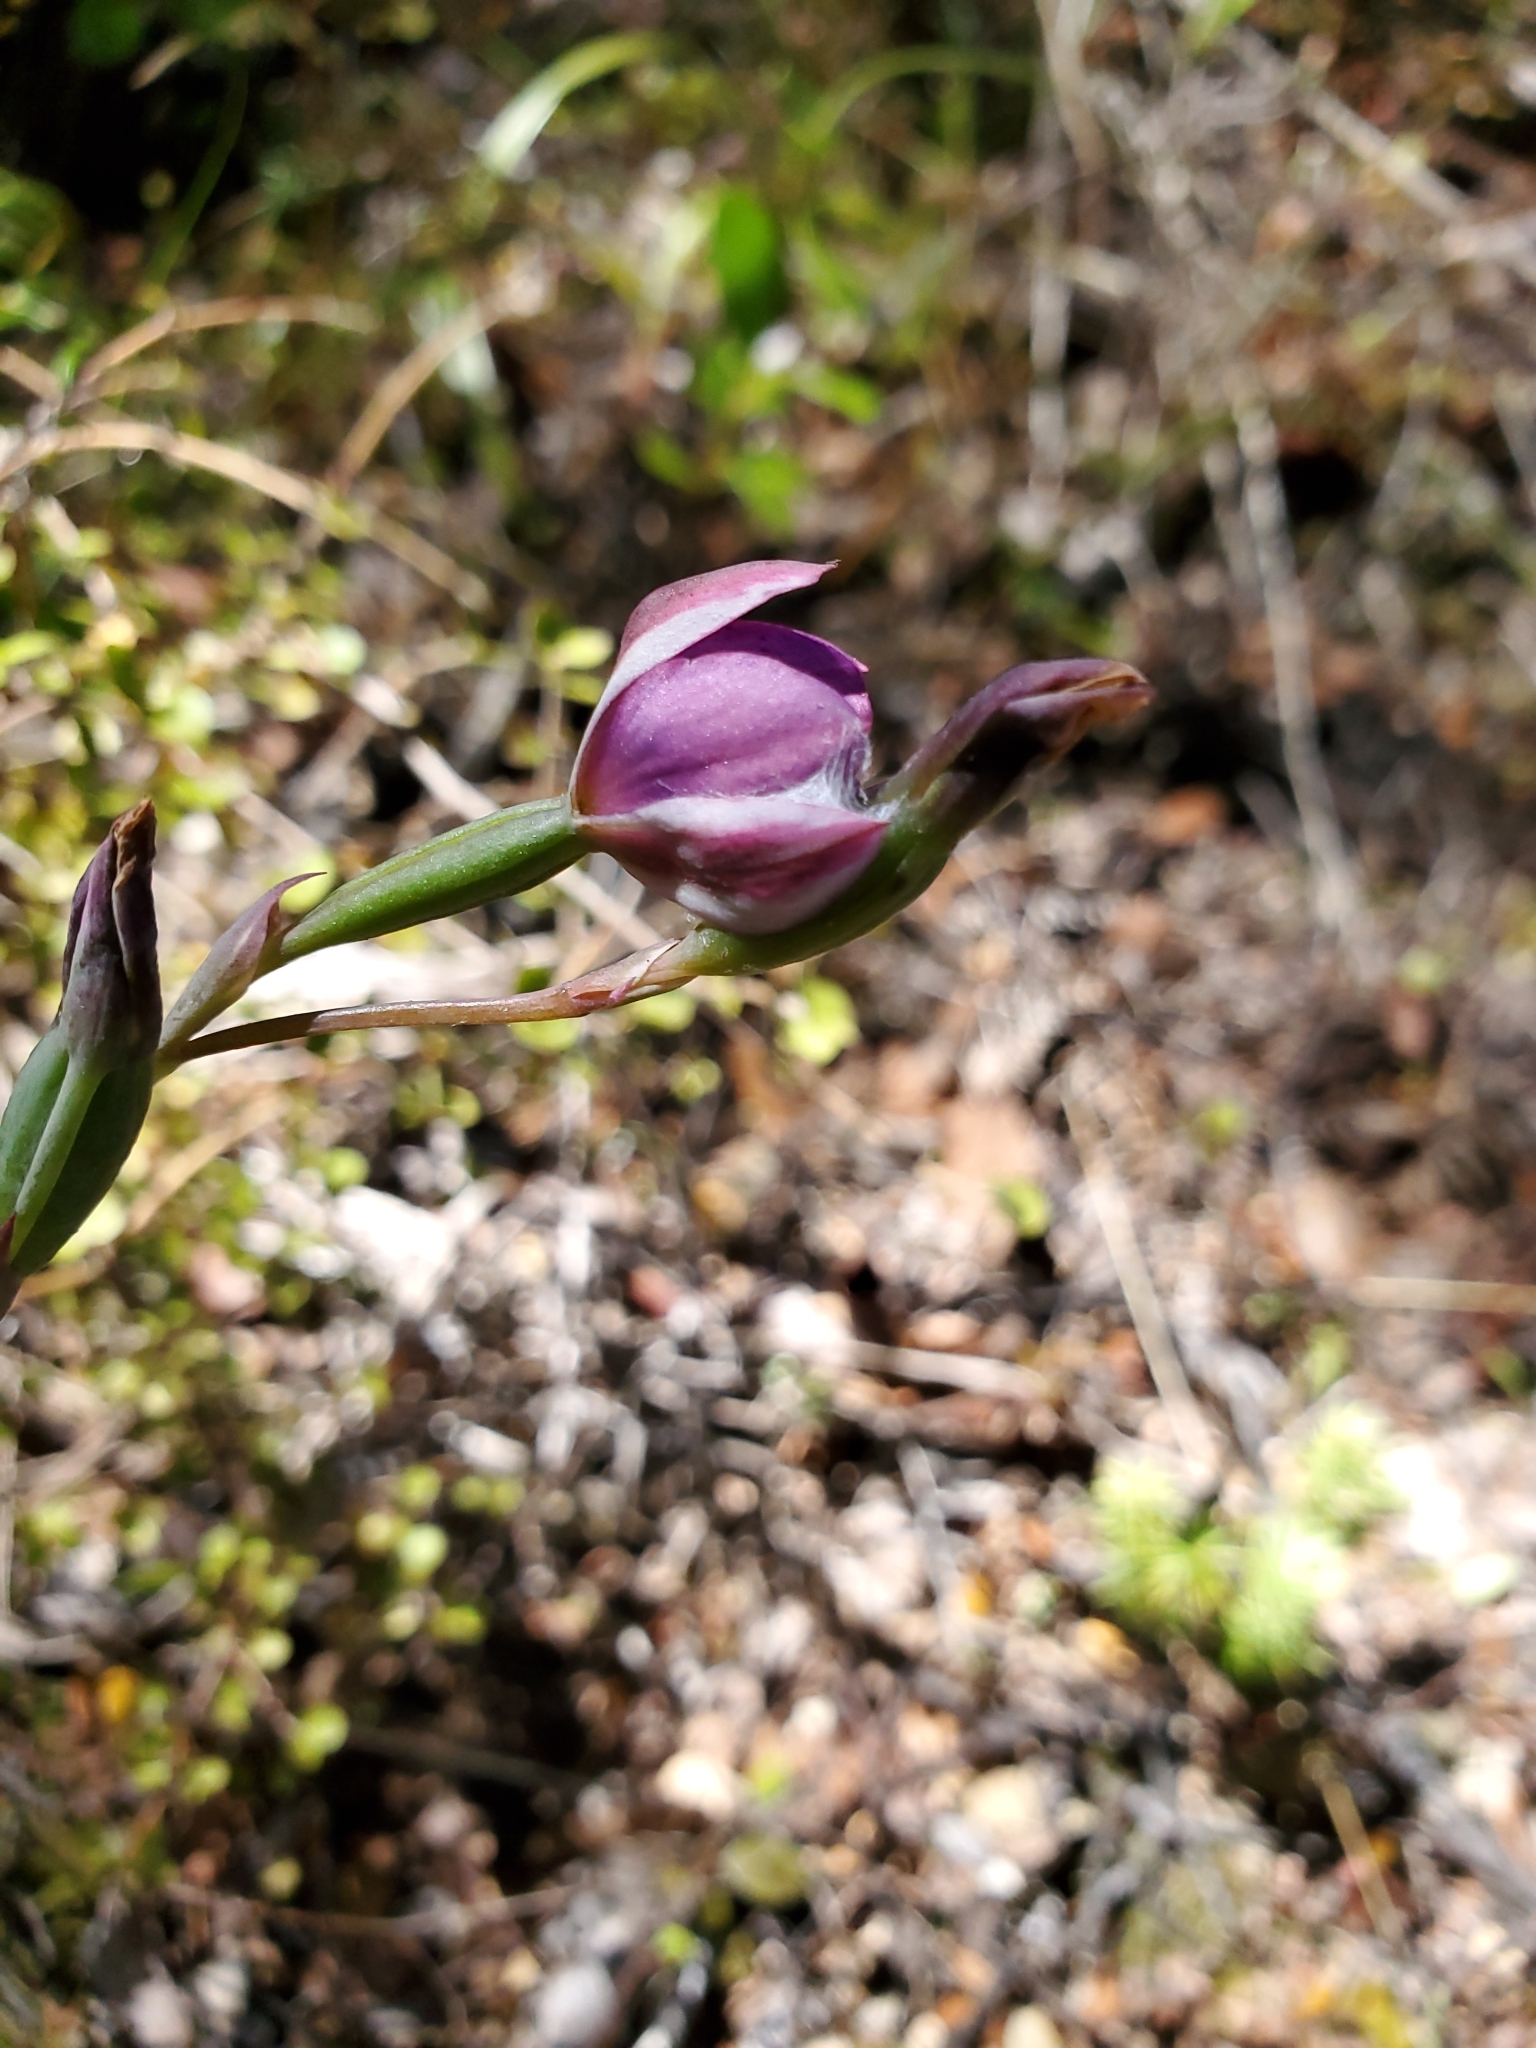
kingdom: Plantae
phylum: Tracheophyta
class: Liliopsida
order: Asparagales
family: Orchidaceae
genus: Thelymitra
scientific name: Thelymitra nervosa
